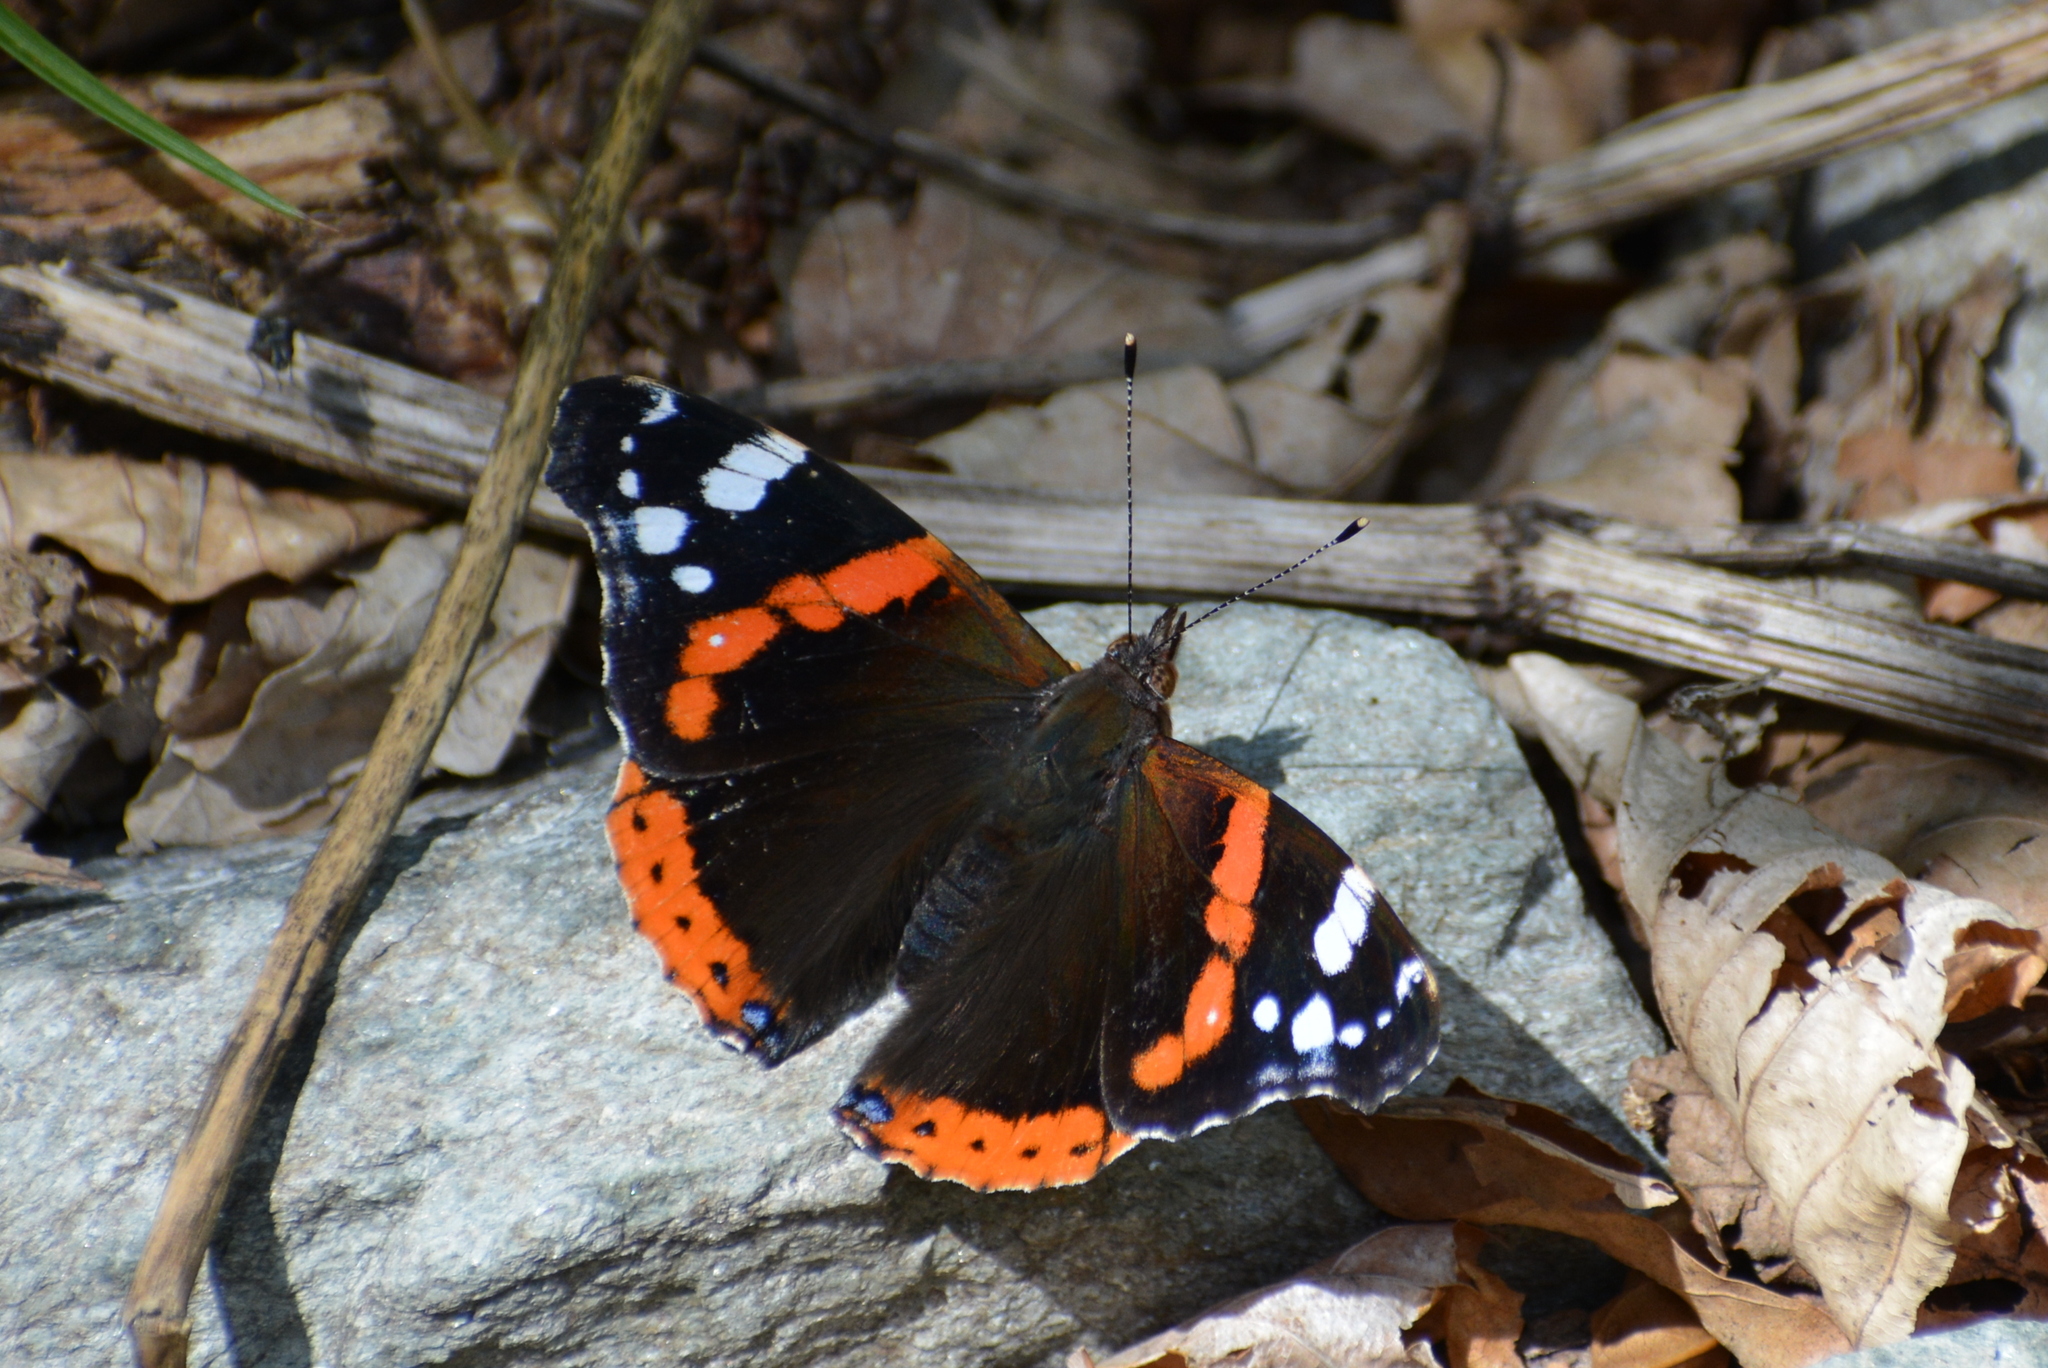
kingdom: Animalia
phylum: Arthropoda
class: Insecta
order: Lepidoptera
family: Nymphalidae
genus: Vanessa
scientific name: Vanessa atalanta
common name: Red admiral
